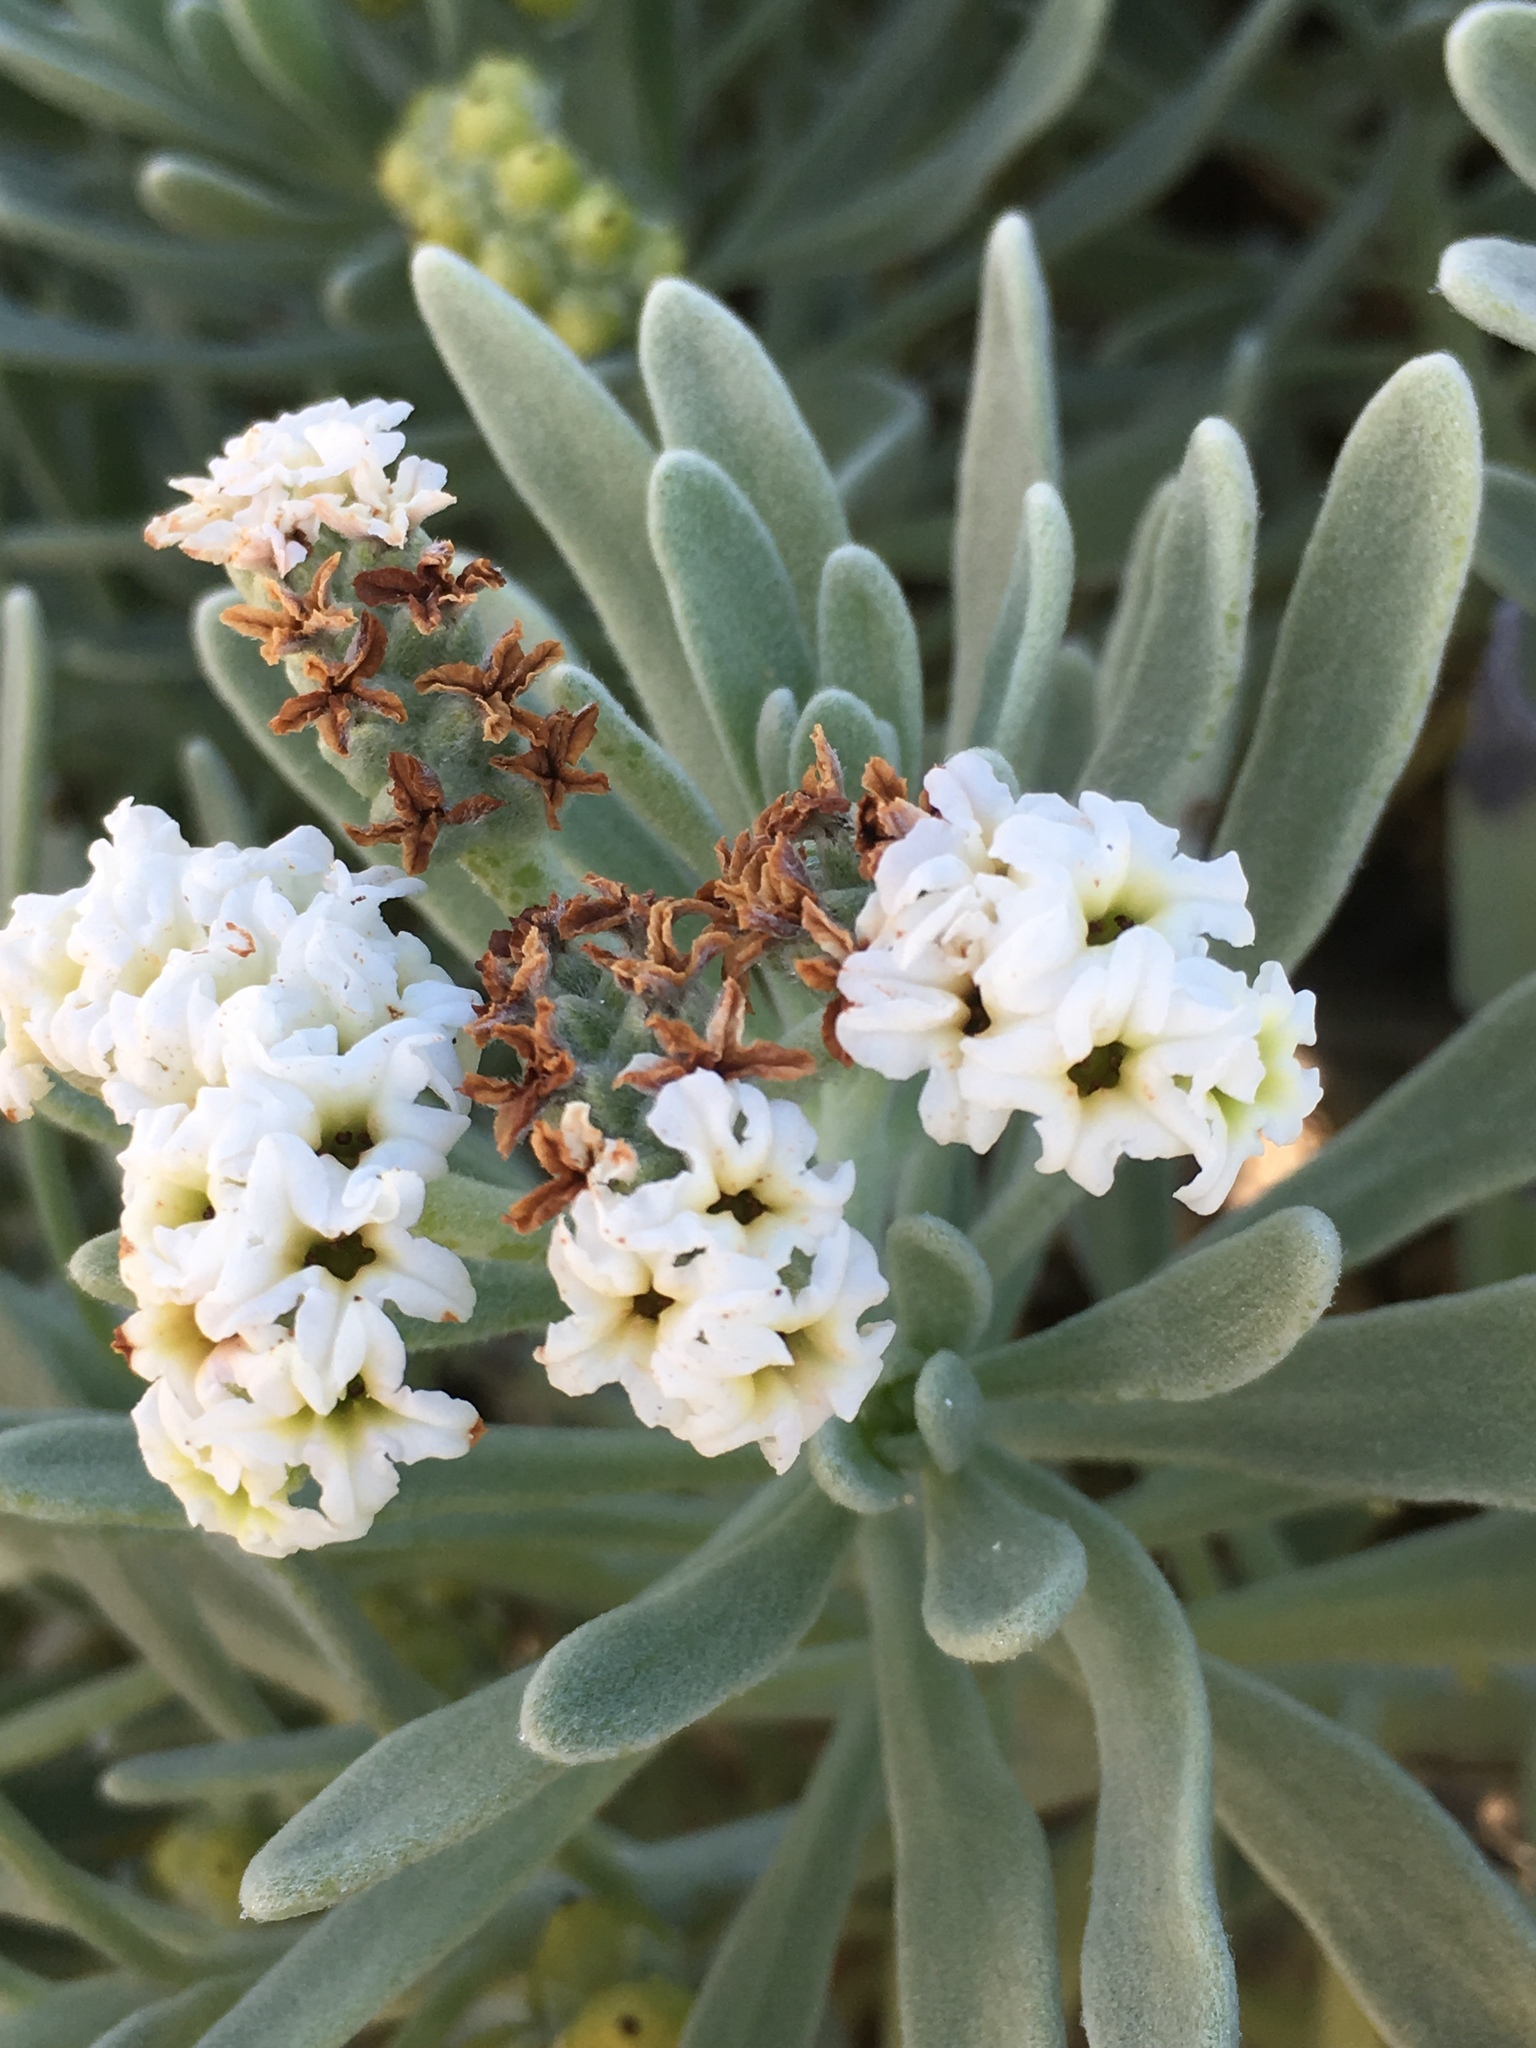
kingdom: Plantae
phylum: Tracheophyta
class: Magnoliopsida
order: Boraginales
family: Heliotropiaceae
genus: Tournefortia
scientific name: Tournefortia gnaphalodes
